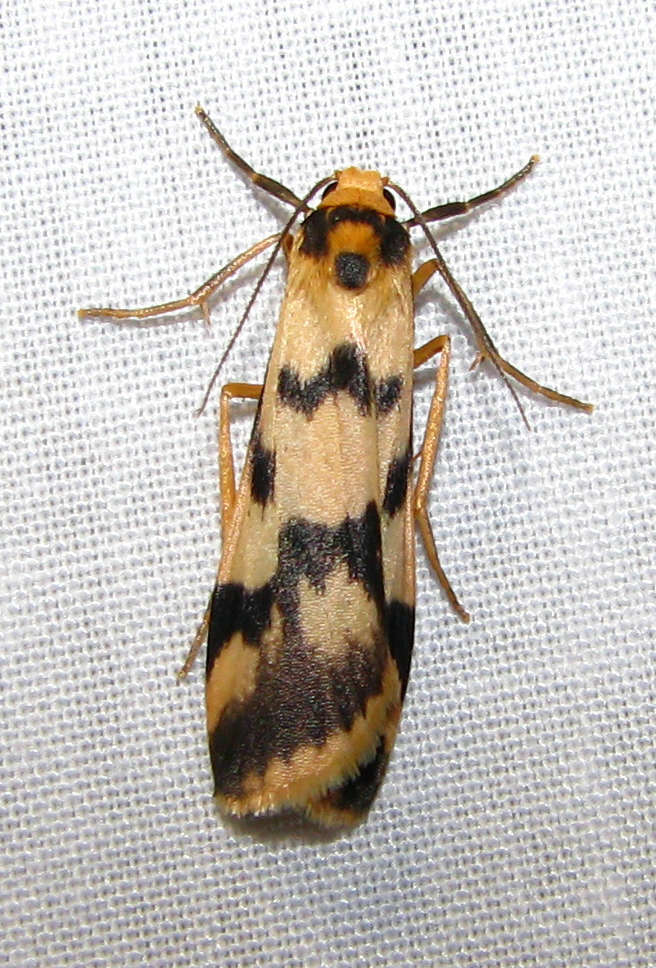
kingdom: Animalia
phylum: Arthropoda
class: Insecta
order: Lepidoptera
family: Erebidae
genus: Tigrioides
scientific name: Tigrioides alterna
